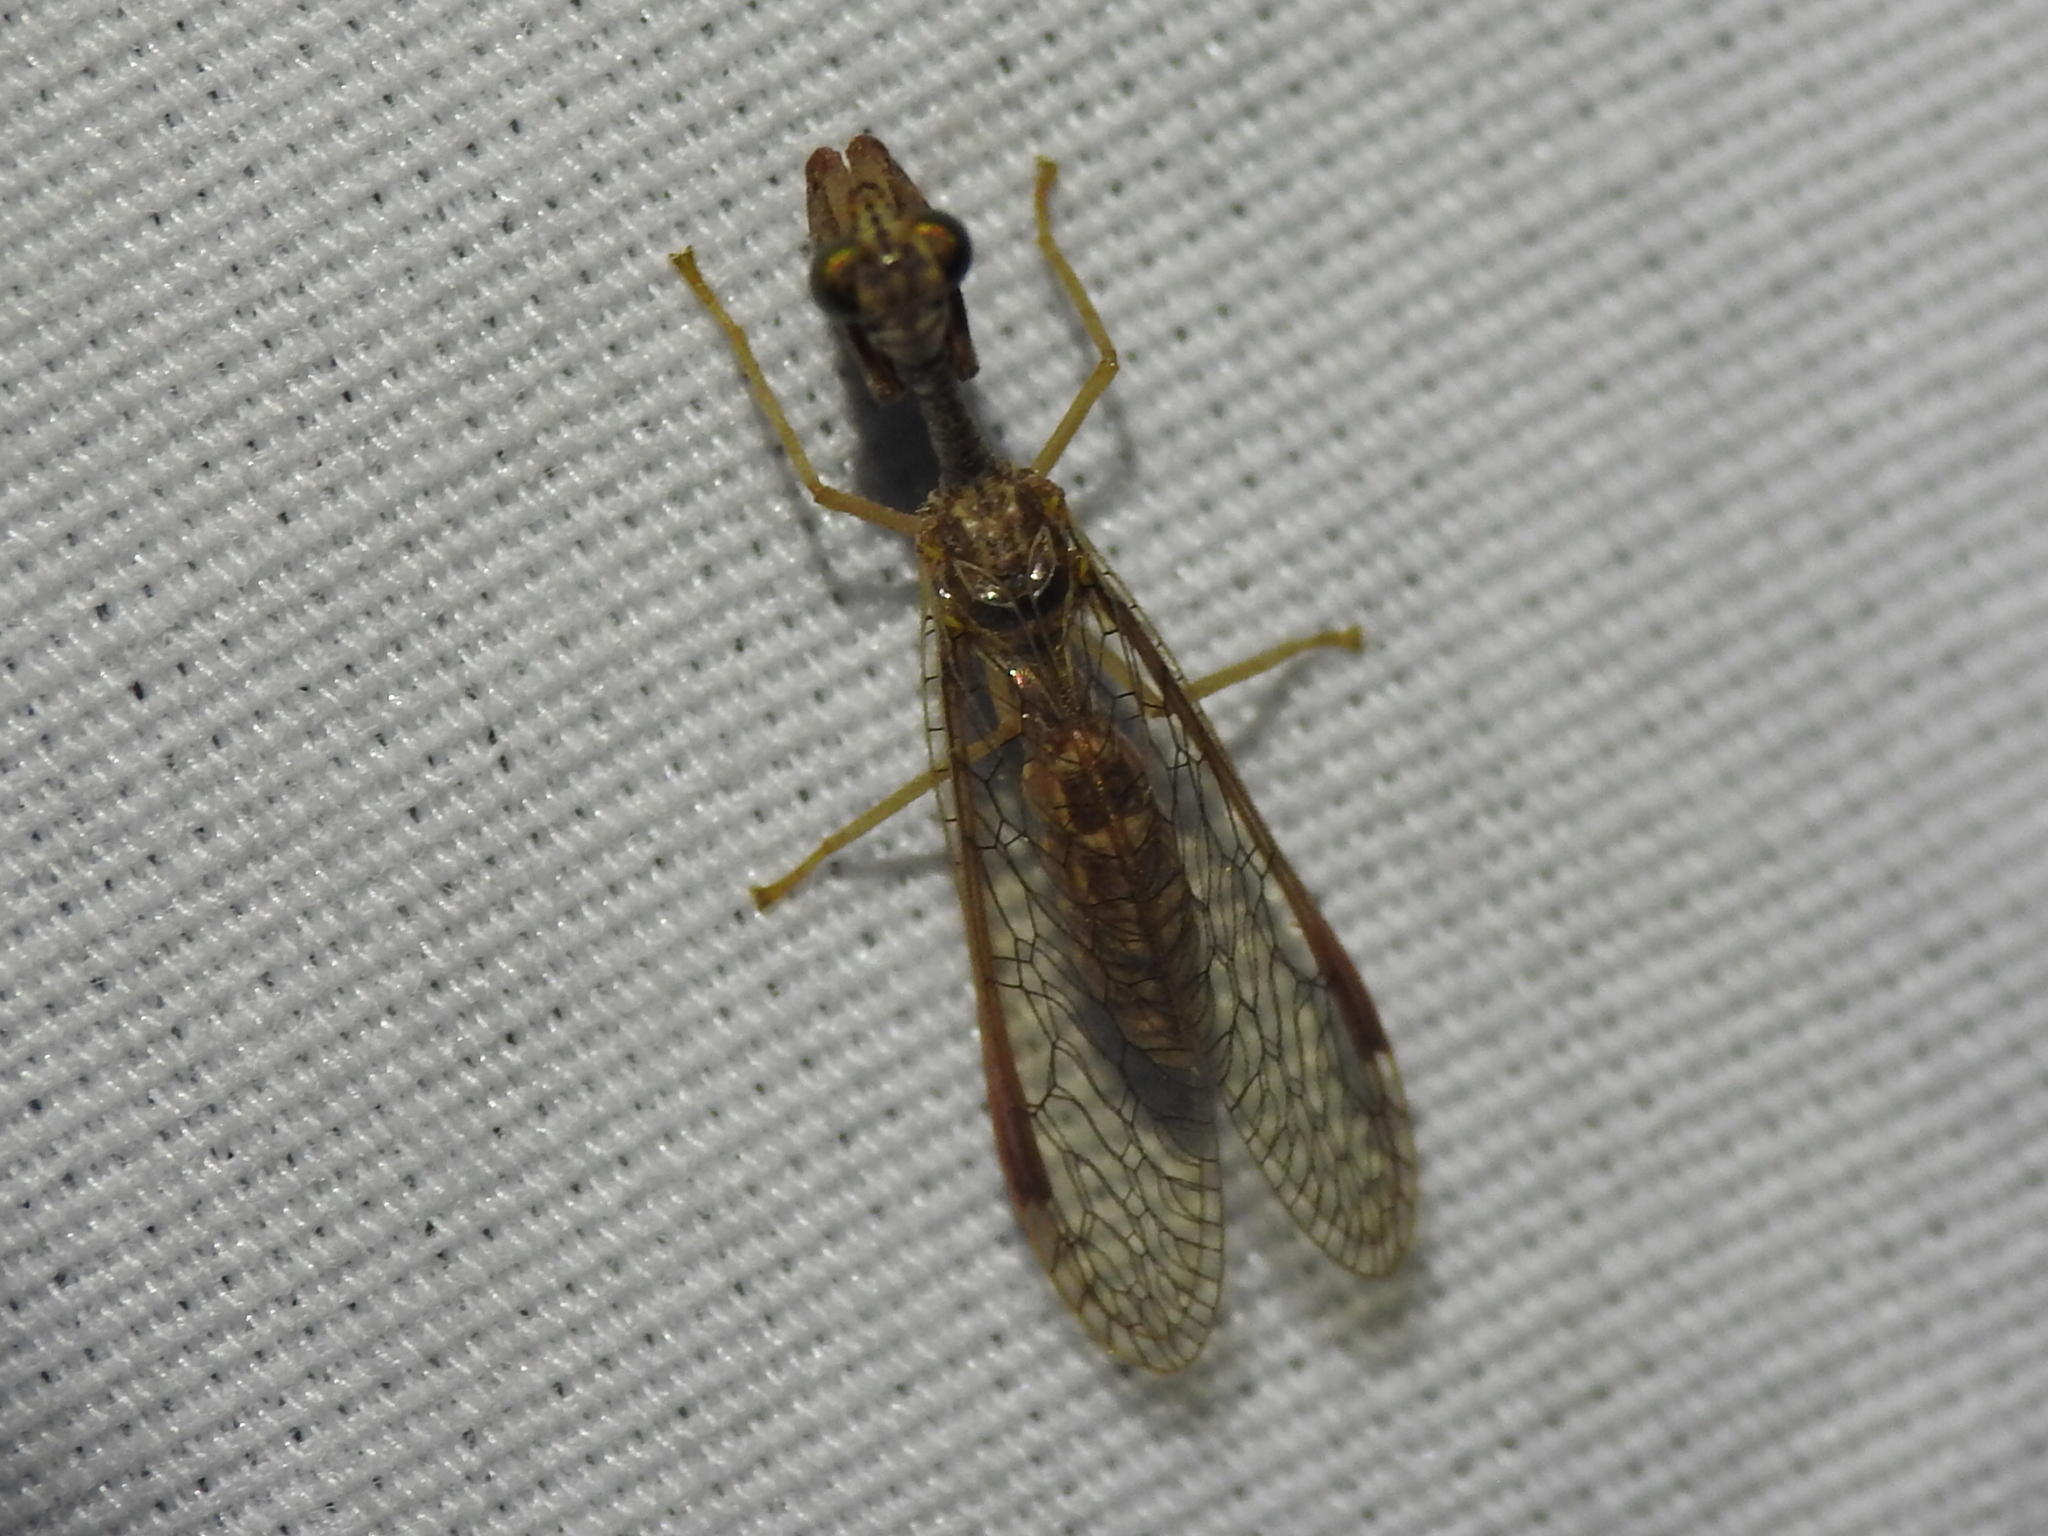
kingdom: Animalia
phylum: Arthropoda
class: Insecta
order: Neuroptera
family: Mantispidae
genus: Dicromantispa
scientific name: Dicromantispa sayi
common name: Say's mantidfly
